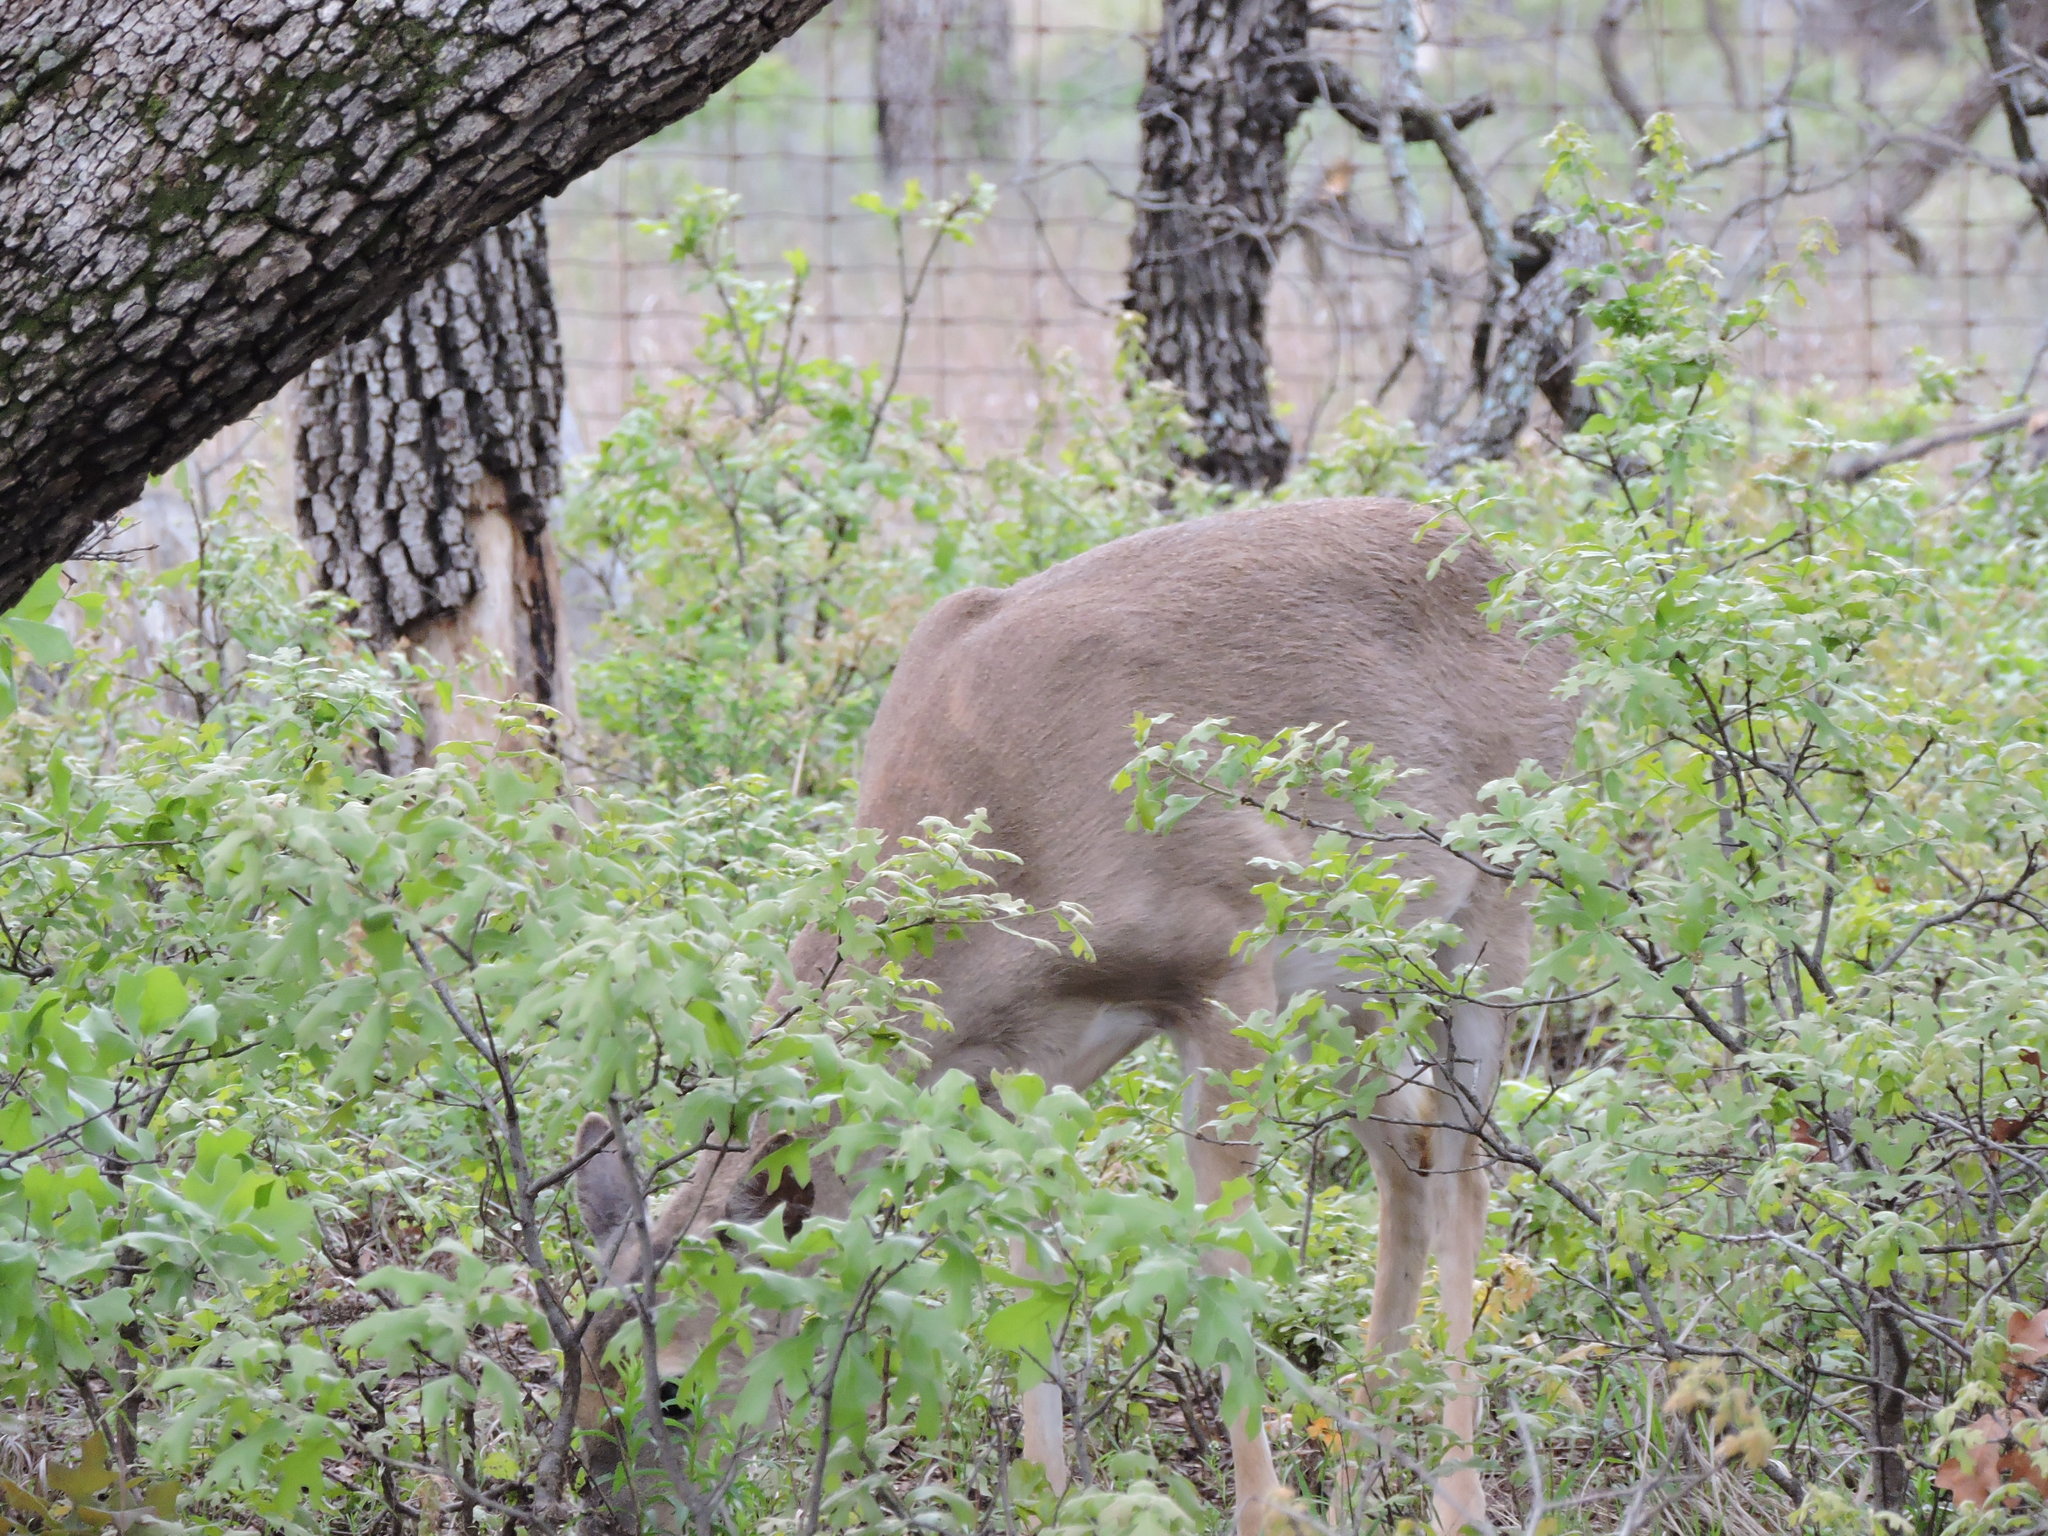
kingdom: Animalia
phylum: Chordata
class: Mammalia
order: Artiodactyla
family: Cervidae
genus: Odocoileus
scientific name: Odocoileus virginianus
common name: White-tailed deer
